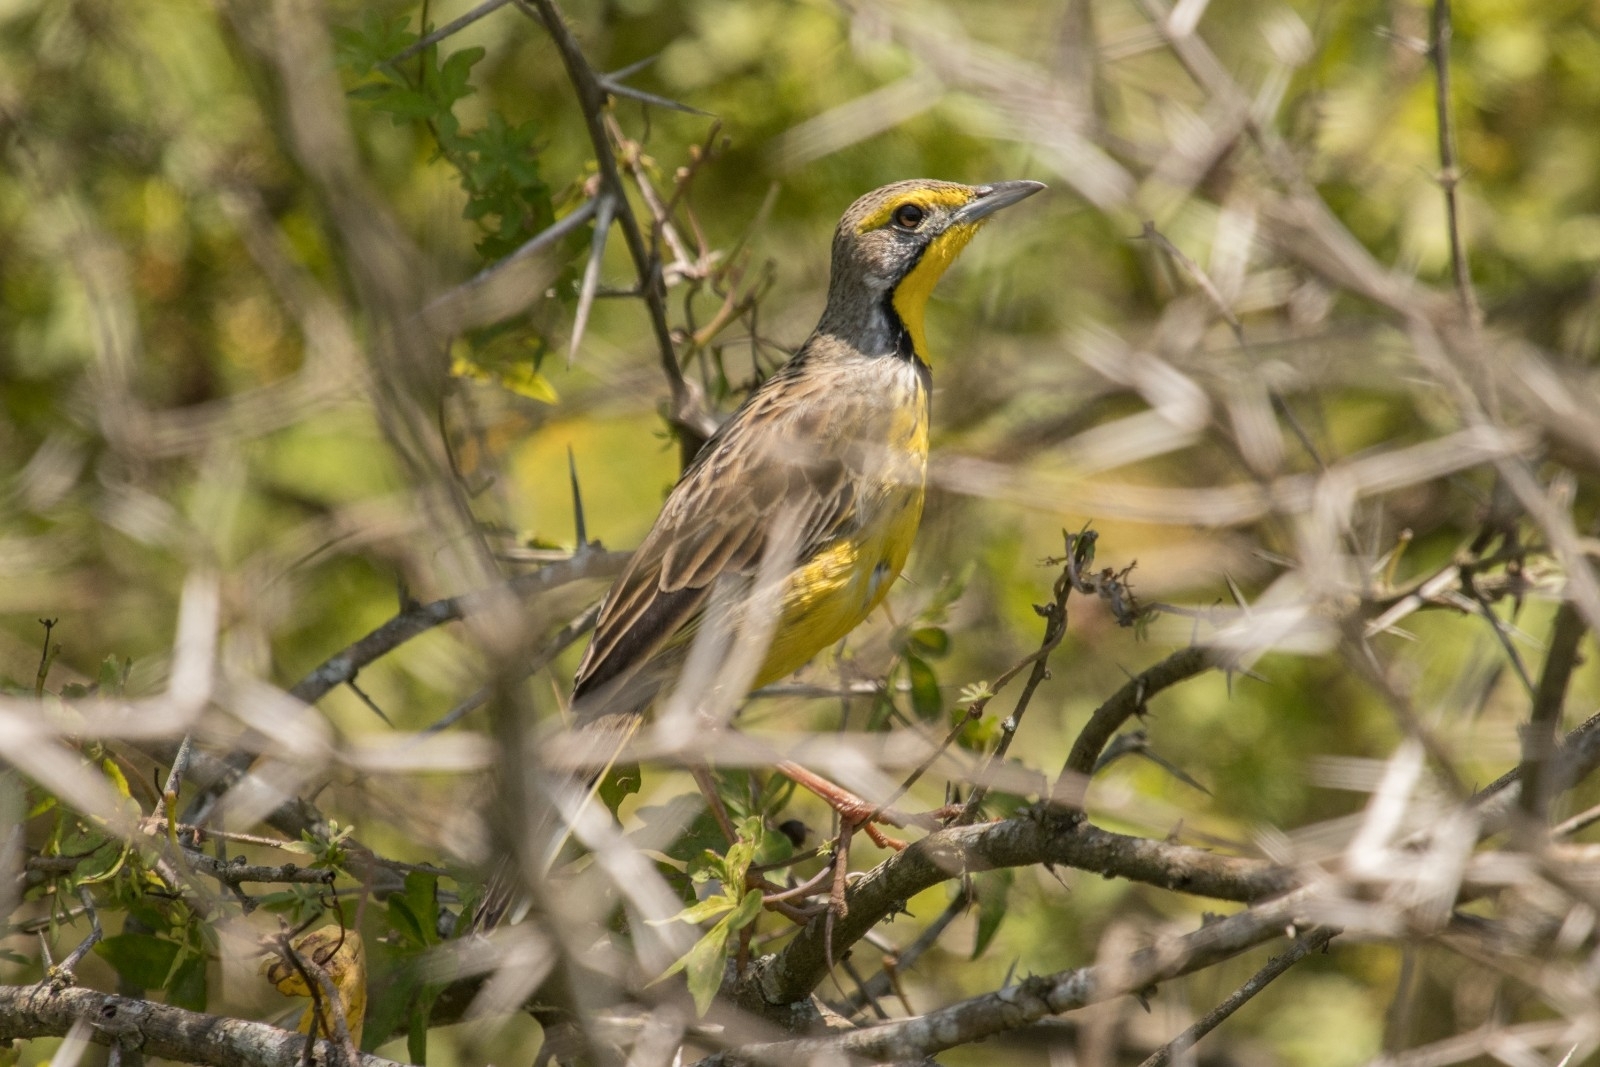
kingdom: Animalia
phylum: Chordata
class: Aves
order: Passeriformes
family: Motacillidae
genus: Macronyx
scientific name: Macronyx croceus
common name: Yellow-throated longclaw
